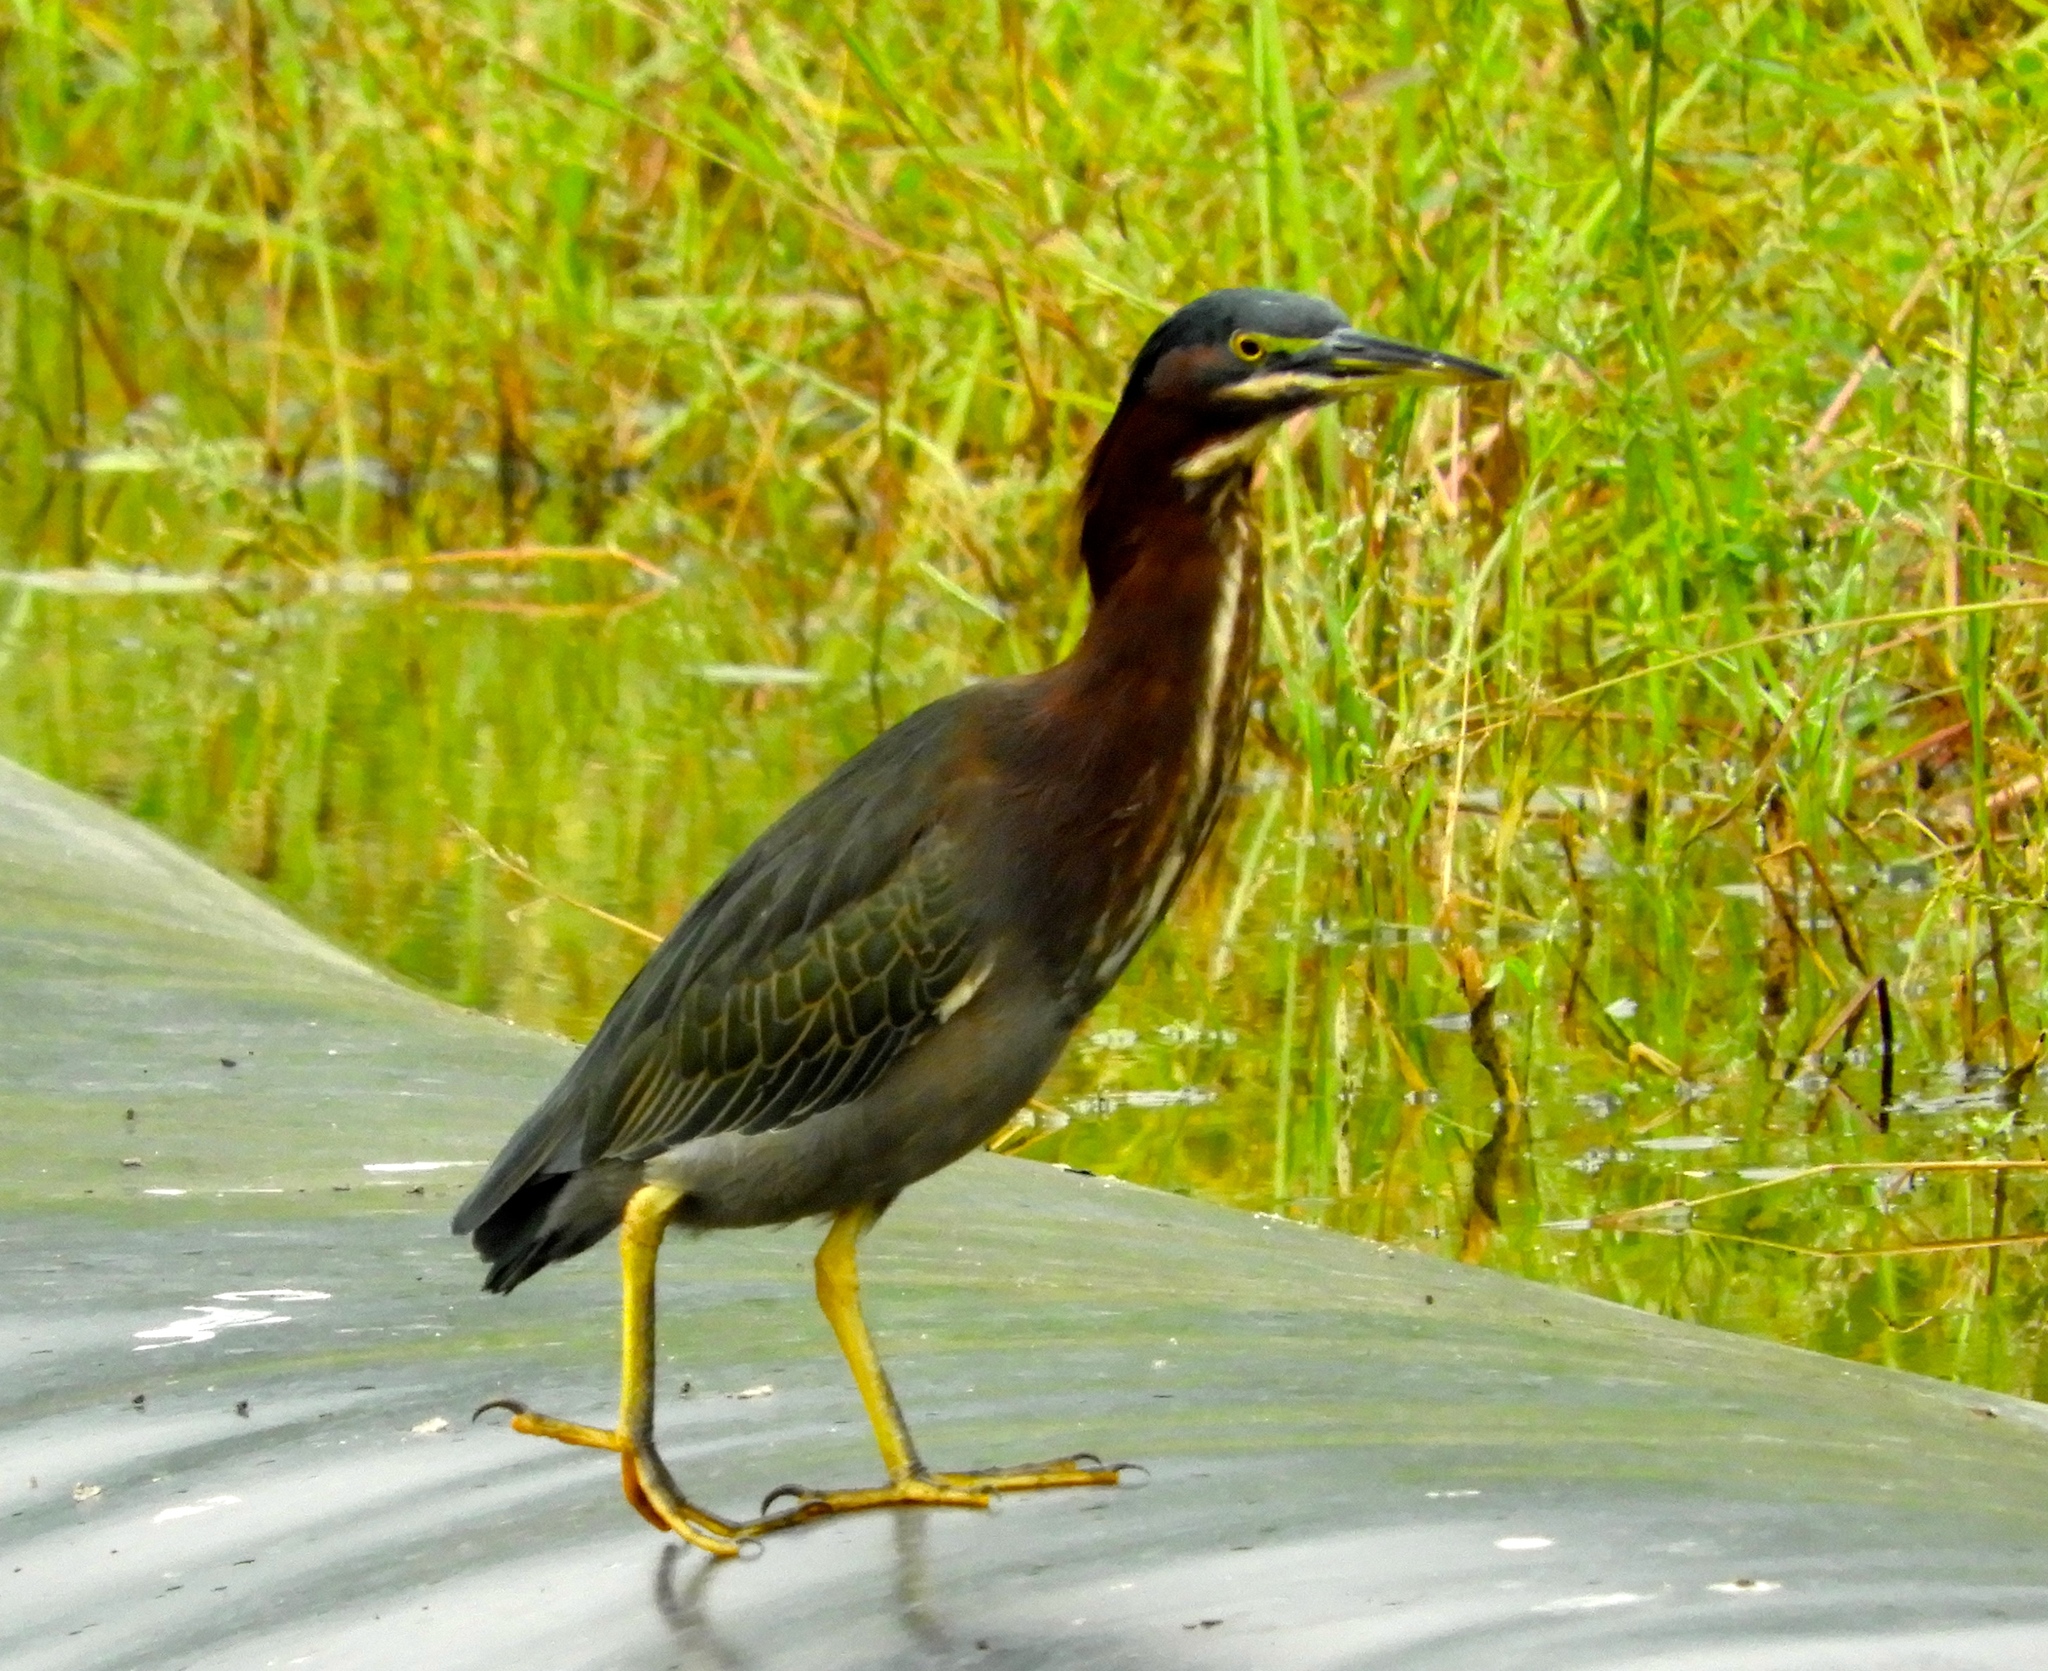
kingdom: Animalia
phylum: Chordata
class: Aves
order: Pelecaniformes
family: Ardeidae
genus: Butorides
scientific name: Butorides virescens
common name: Green heron
